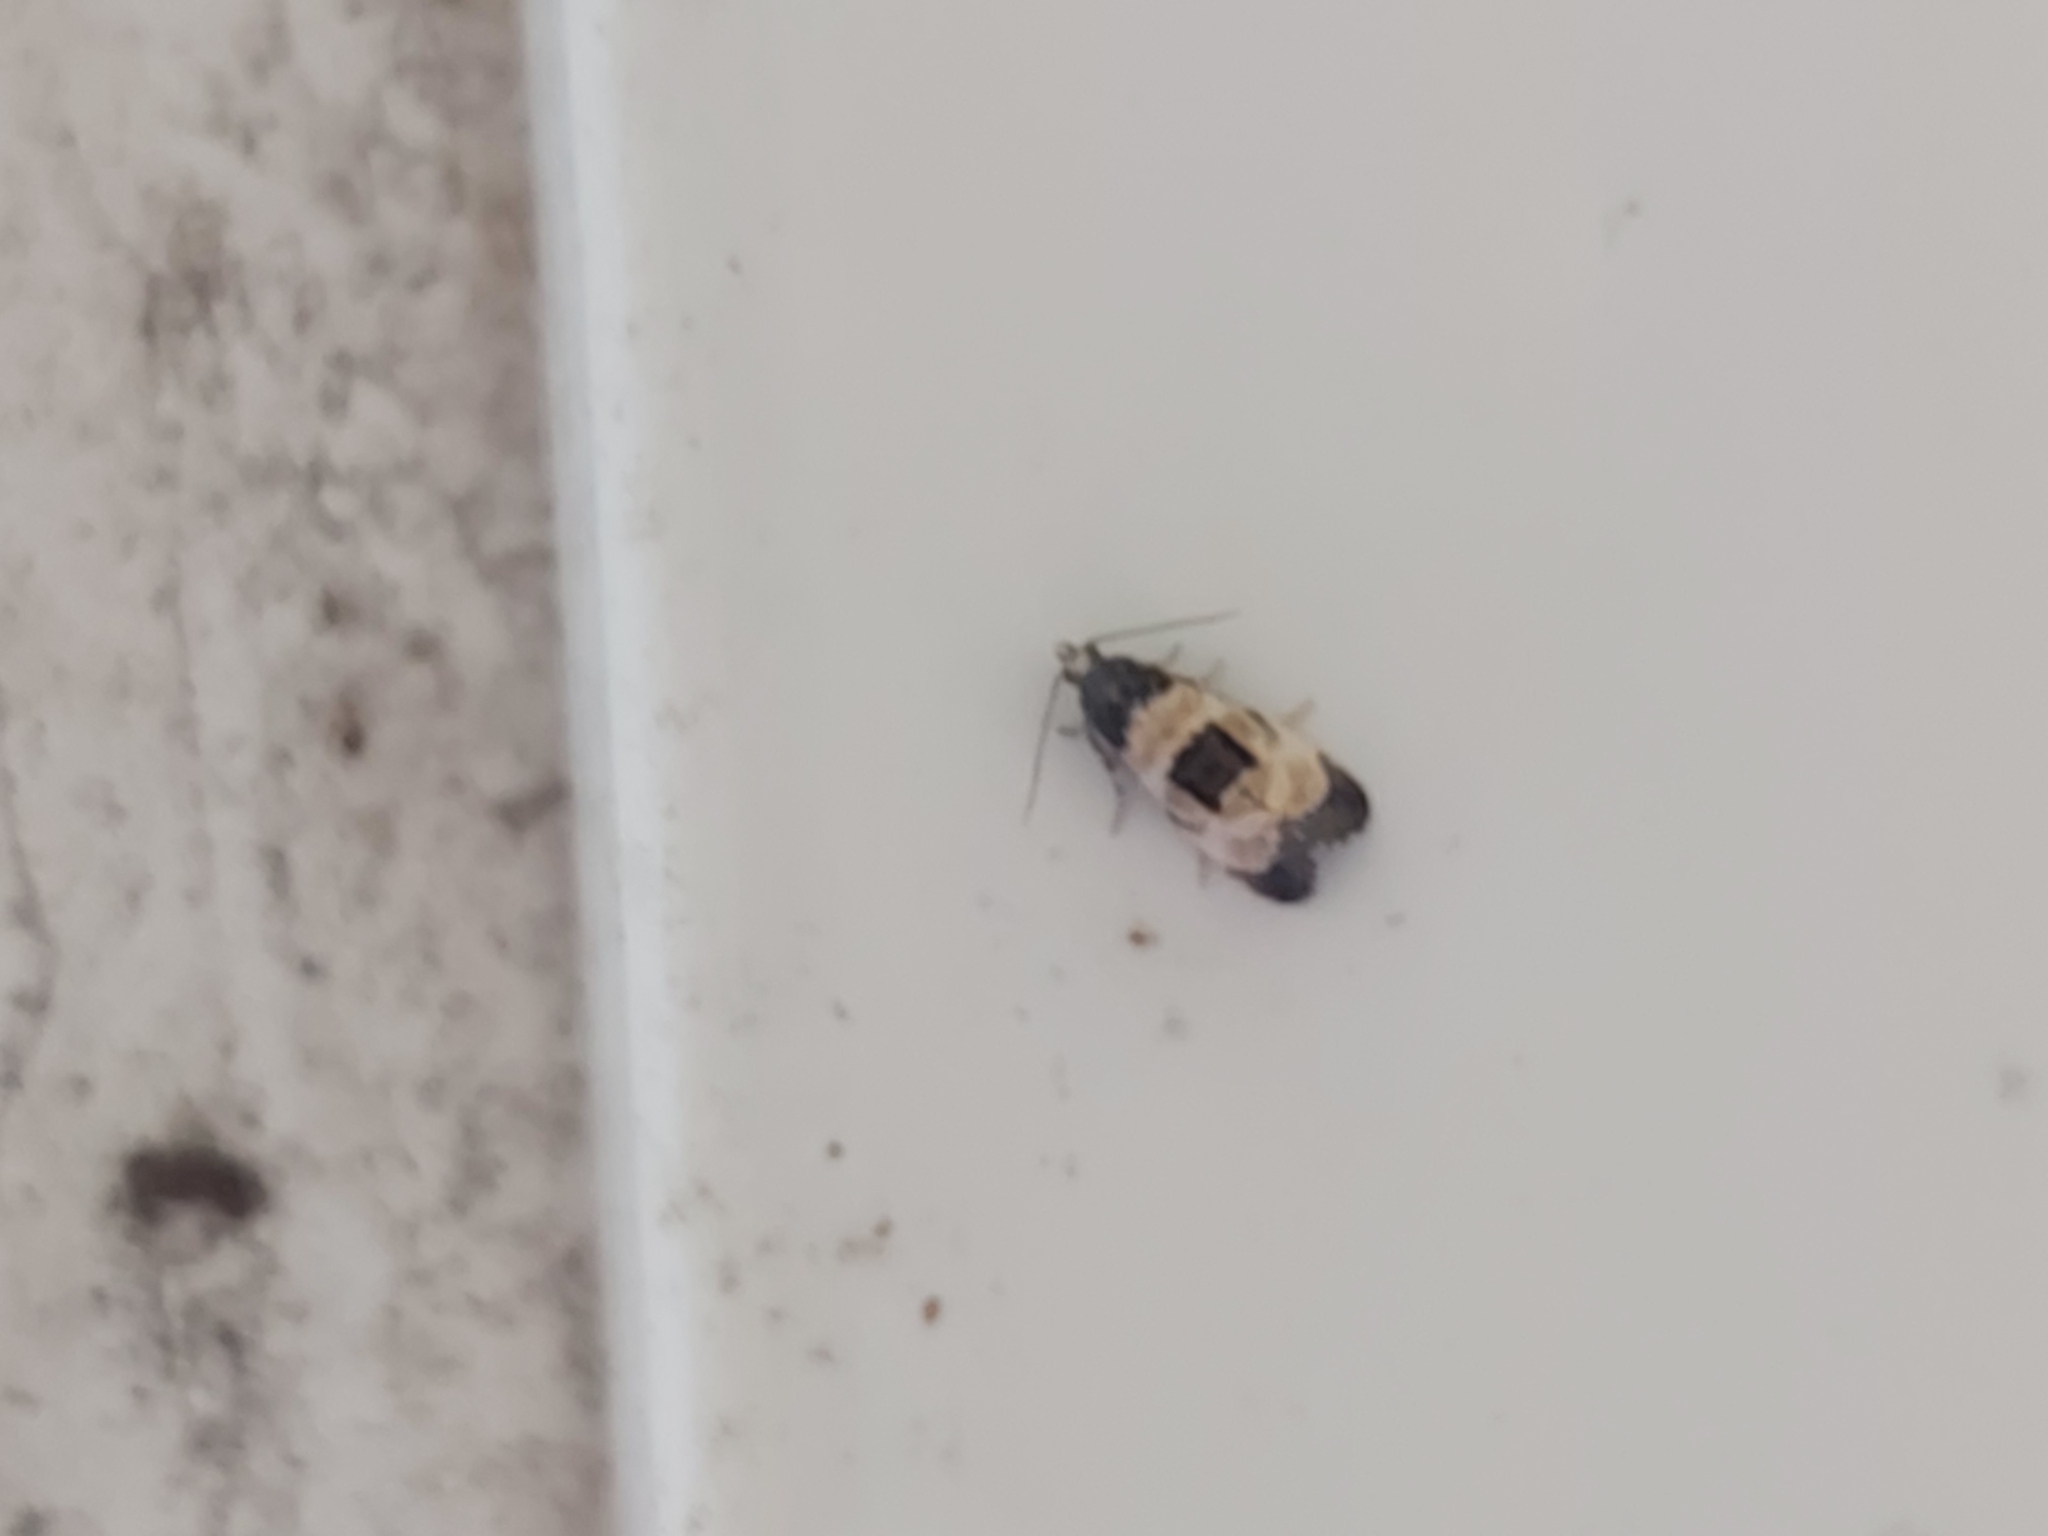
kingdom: Animalia
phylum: Arthropoda
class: Insecta
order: Lepidoptera
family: Tortricidae
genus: Cochylis
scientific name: Cochylis dubitana
